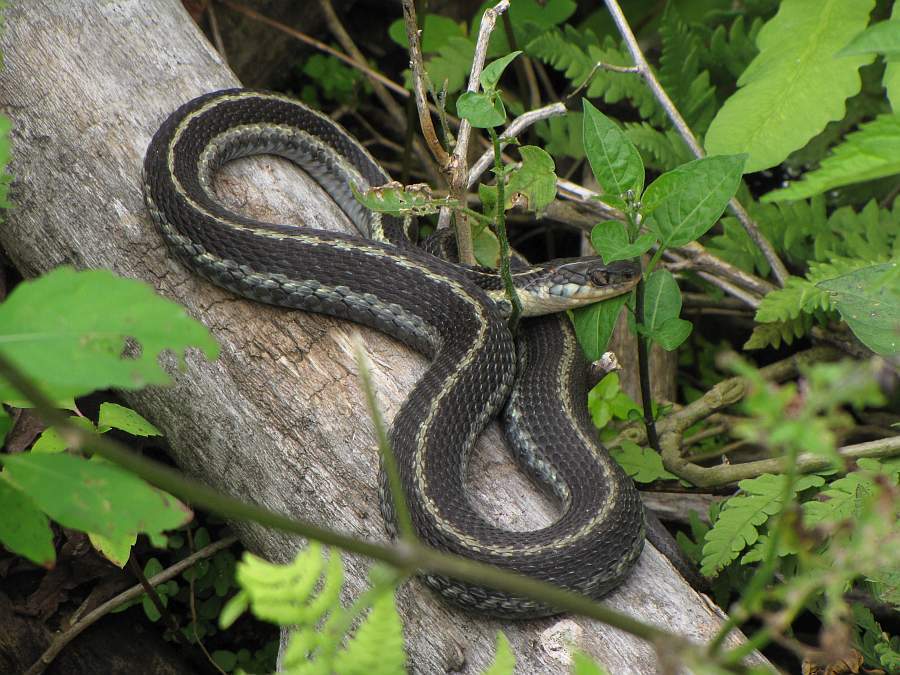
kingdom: Animalia
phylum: Chordata
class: Squamata
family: Colubridae
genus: Thamnophis
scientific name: Thamnophis sirtalis
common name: Common garter snake
